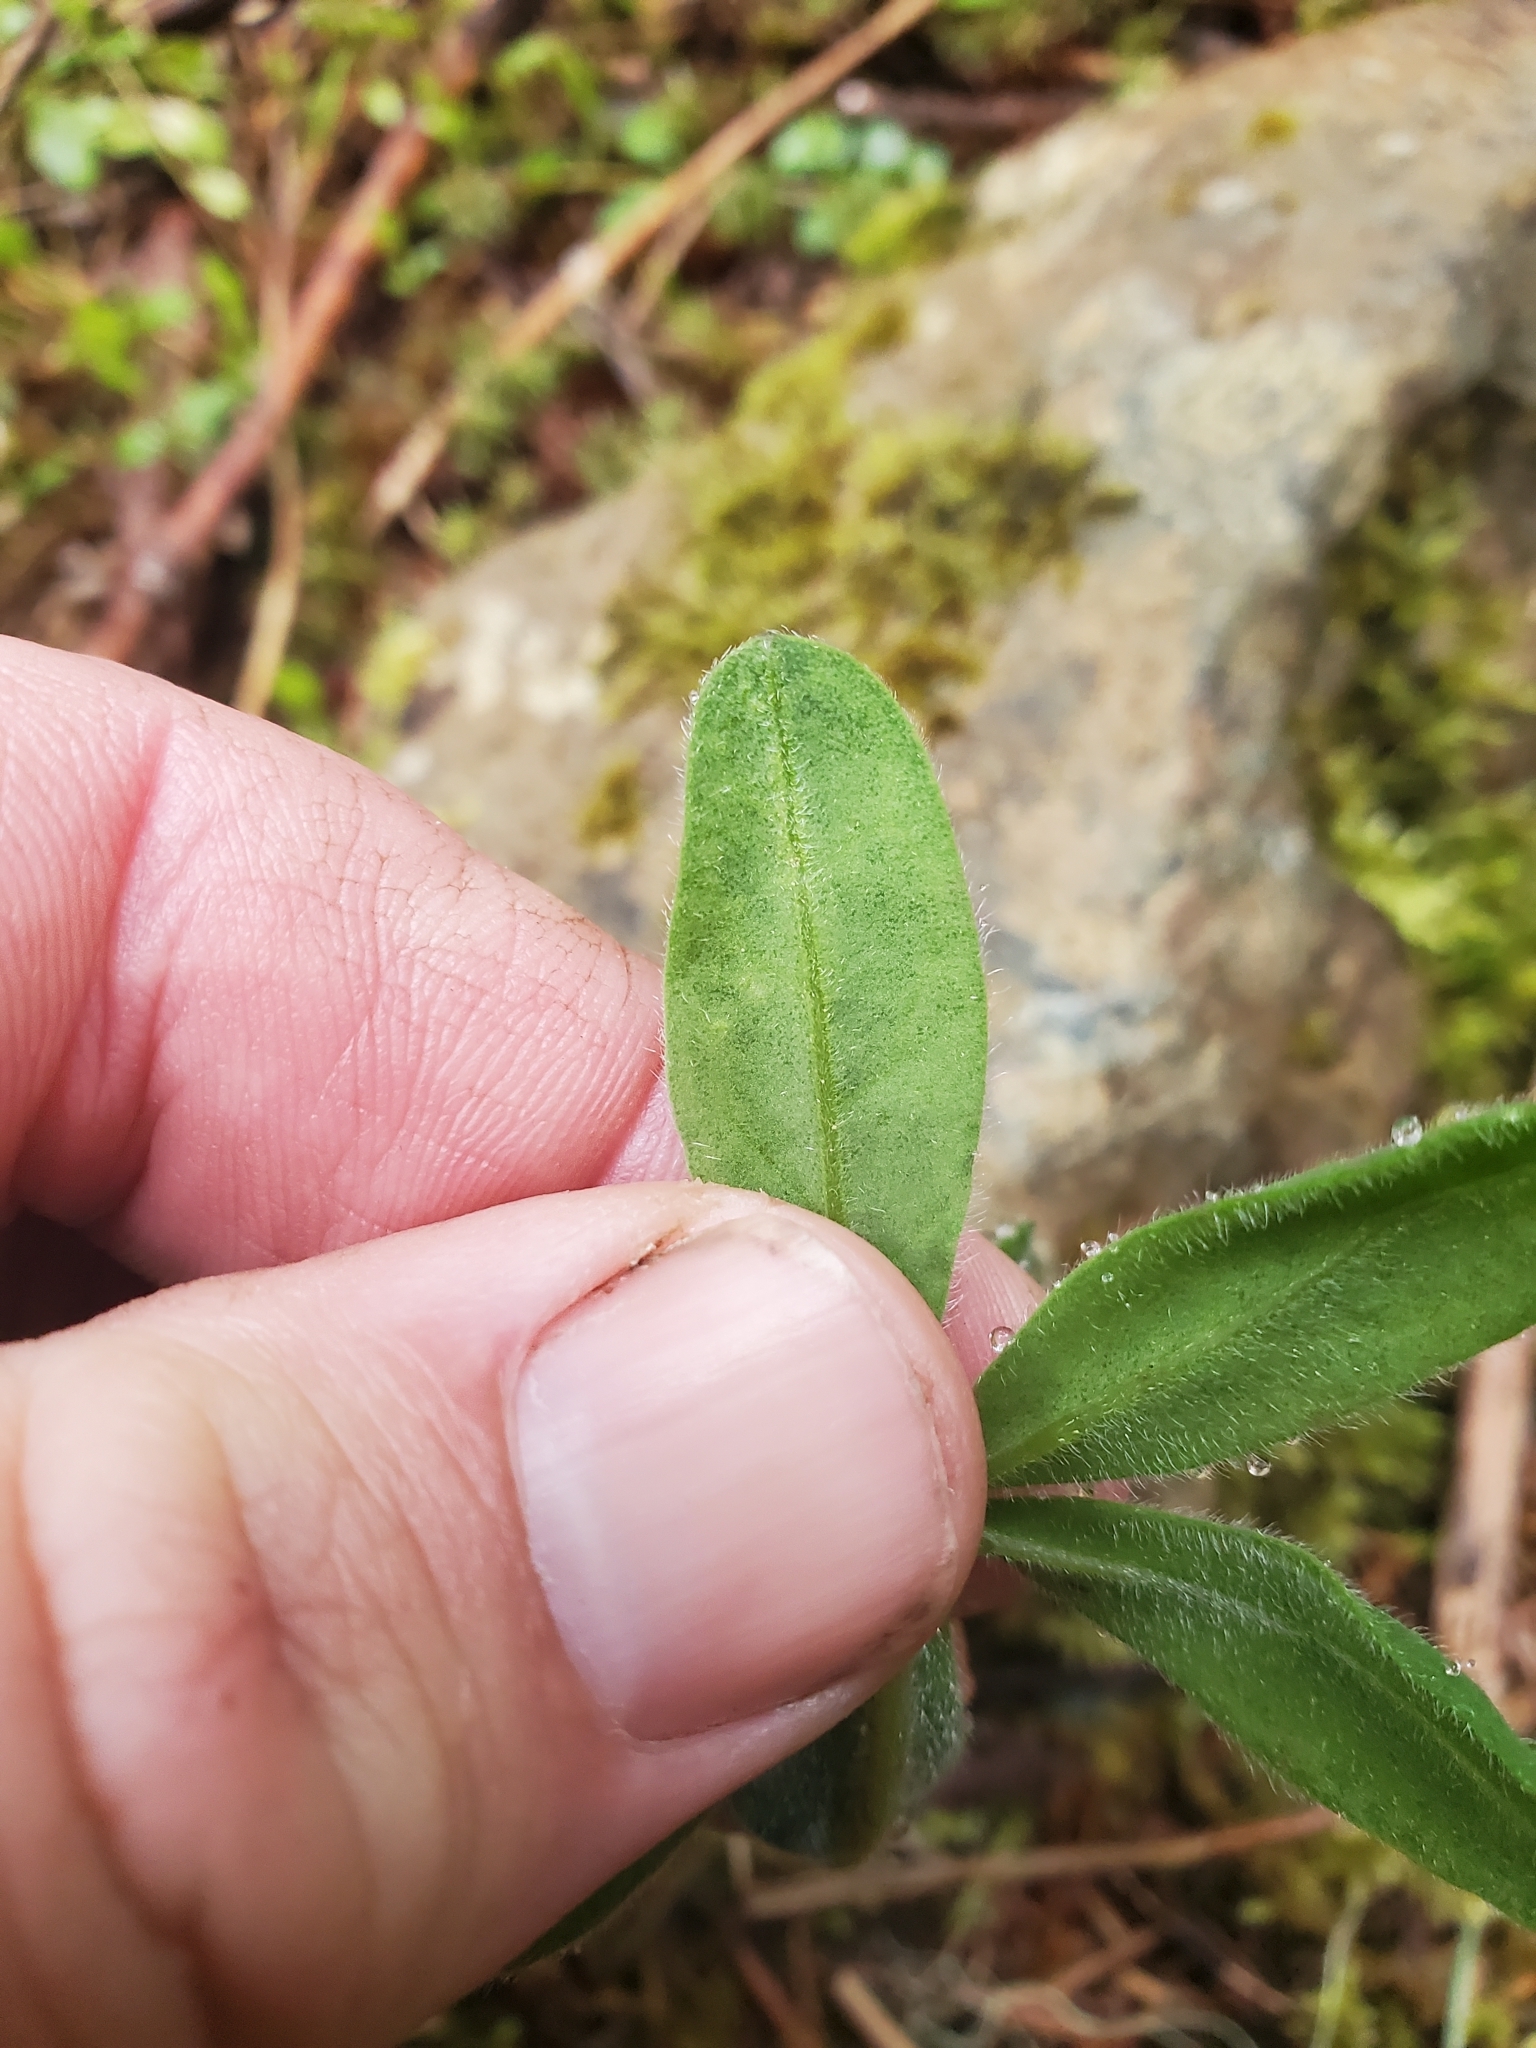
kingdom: Plantae
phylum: Tracheophyta
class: Magnoliopsida
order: Fabales
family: Fabaceae
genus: Lupinus
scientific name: Lupinus latifolius
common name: Broad-leaved lupine
